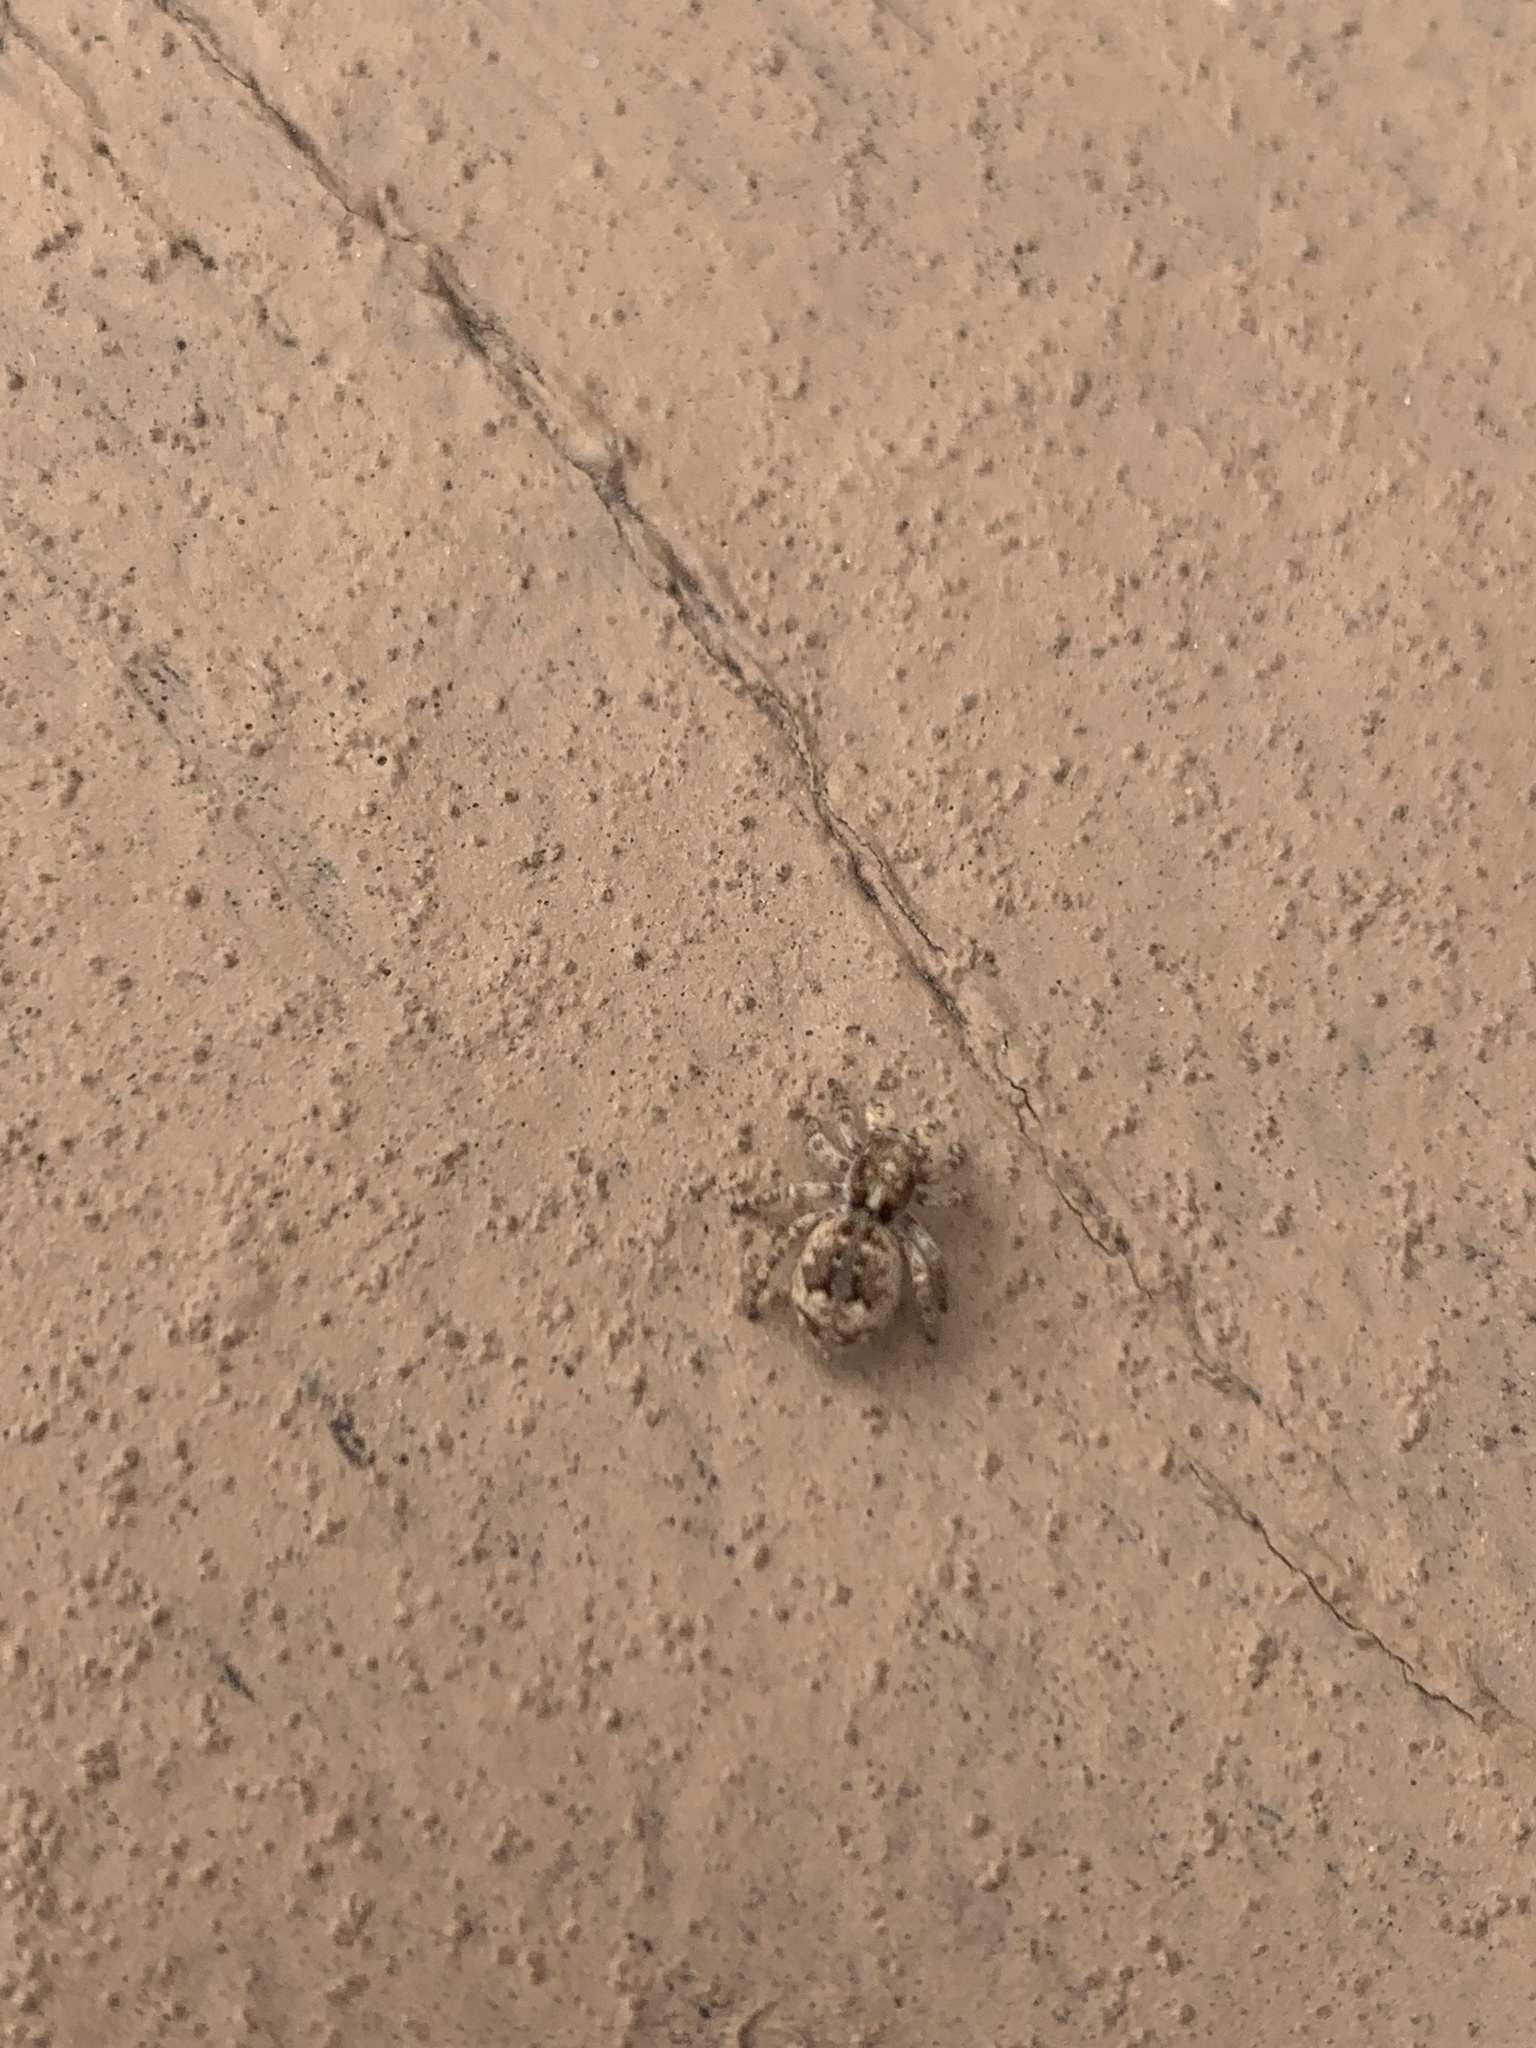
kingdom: Animalia
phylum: Arthropoda
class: Arachnida
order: Araneae
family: Salticidae
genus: Attulus
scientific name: Attulus fasciger
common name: Asiatic wall jumping spider
